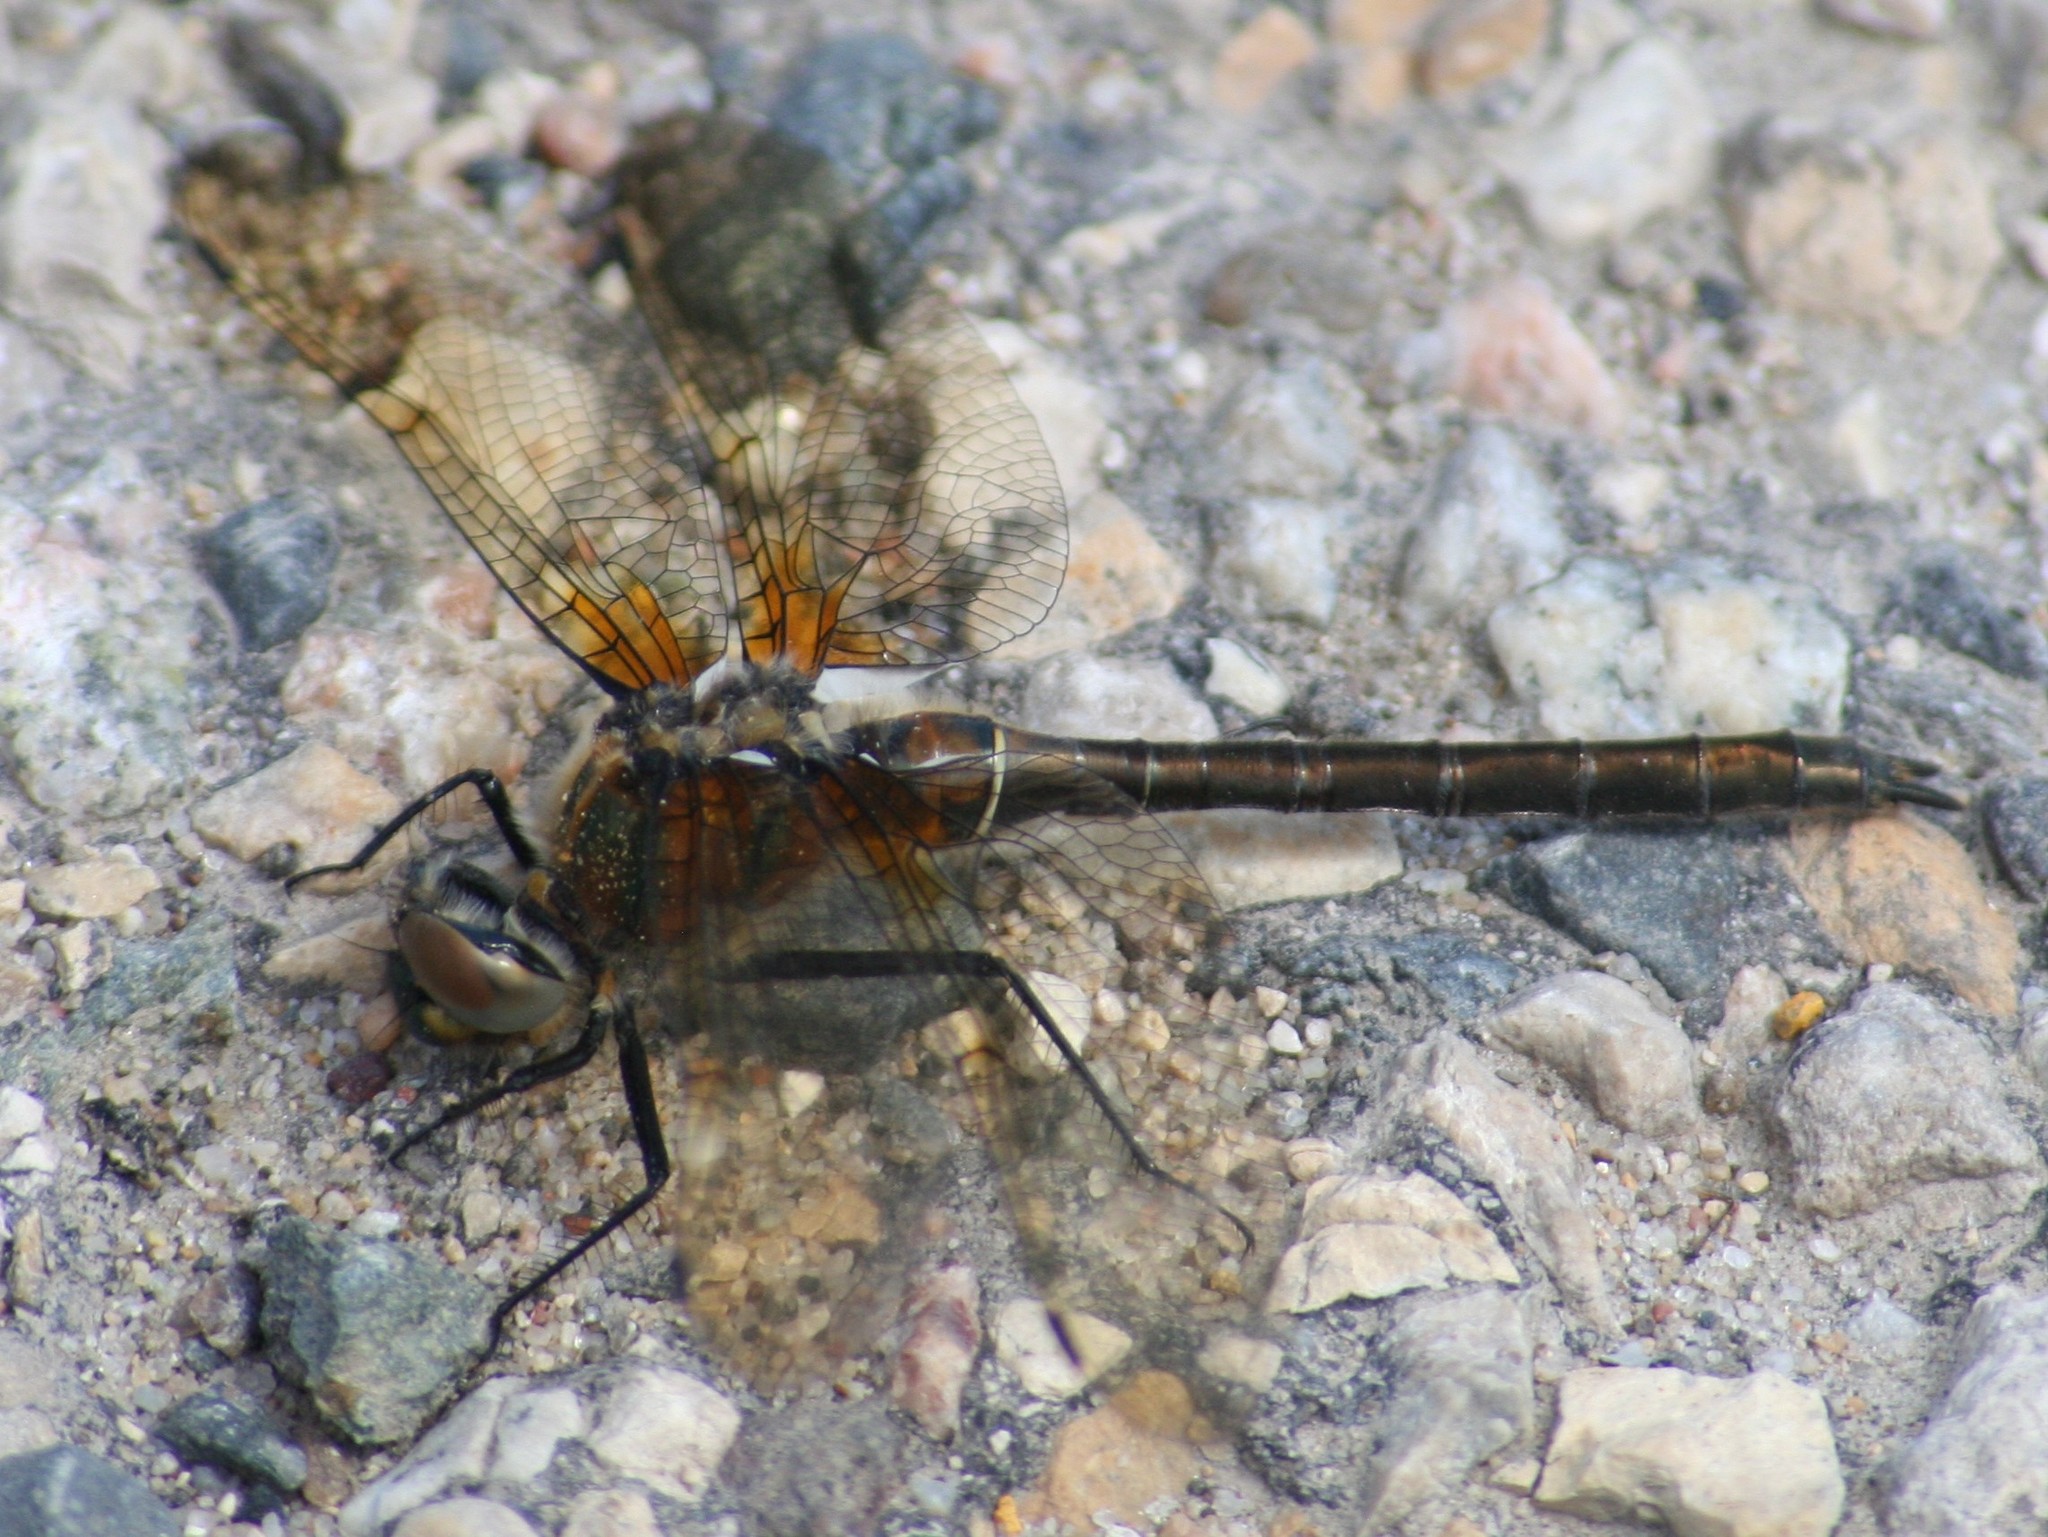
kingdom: Animalia
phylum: Arthropoda
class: Insecta
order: Odonata
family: Corduliidae
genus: Cordulia
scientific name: Cordulia shurtleffii
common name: American emerald
